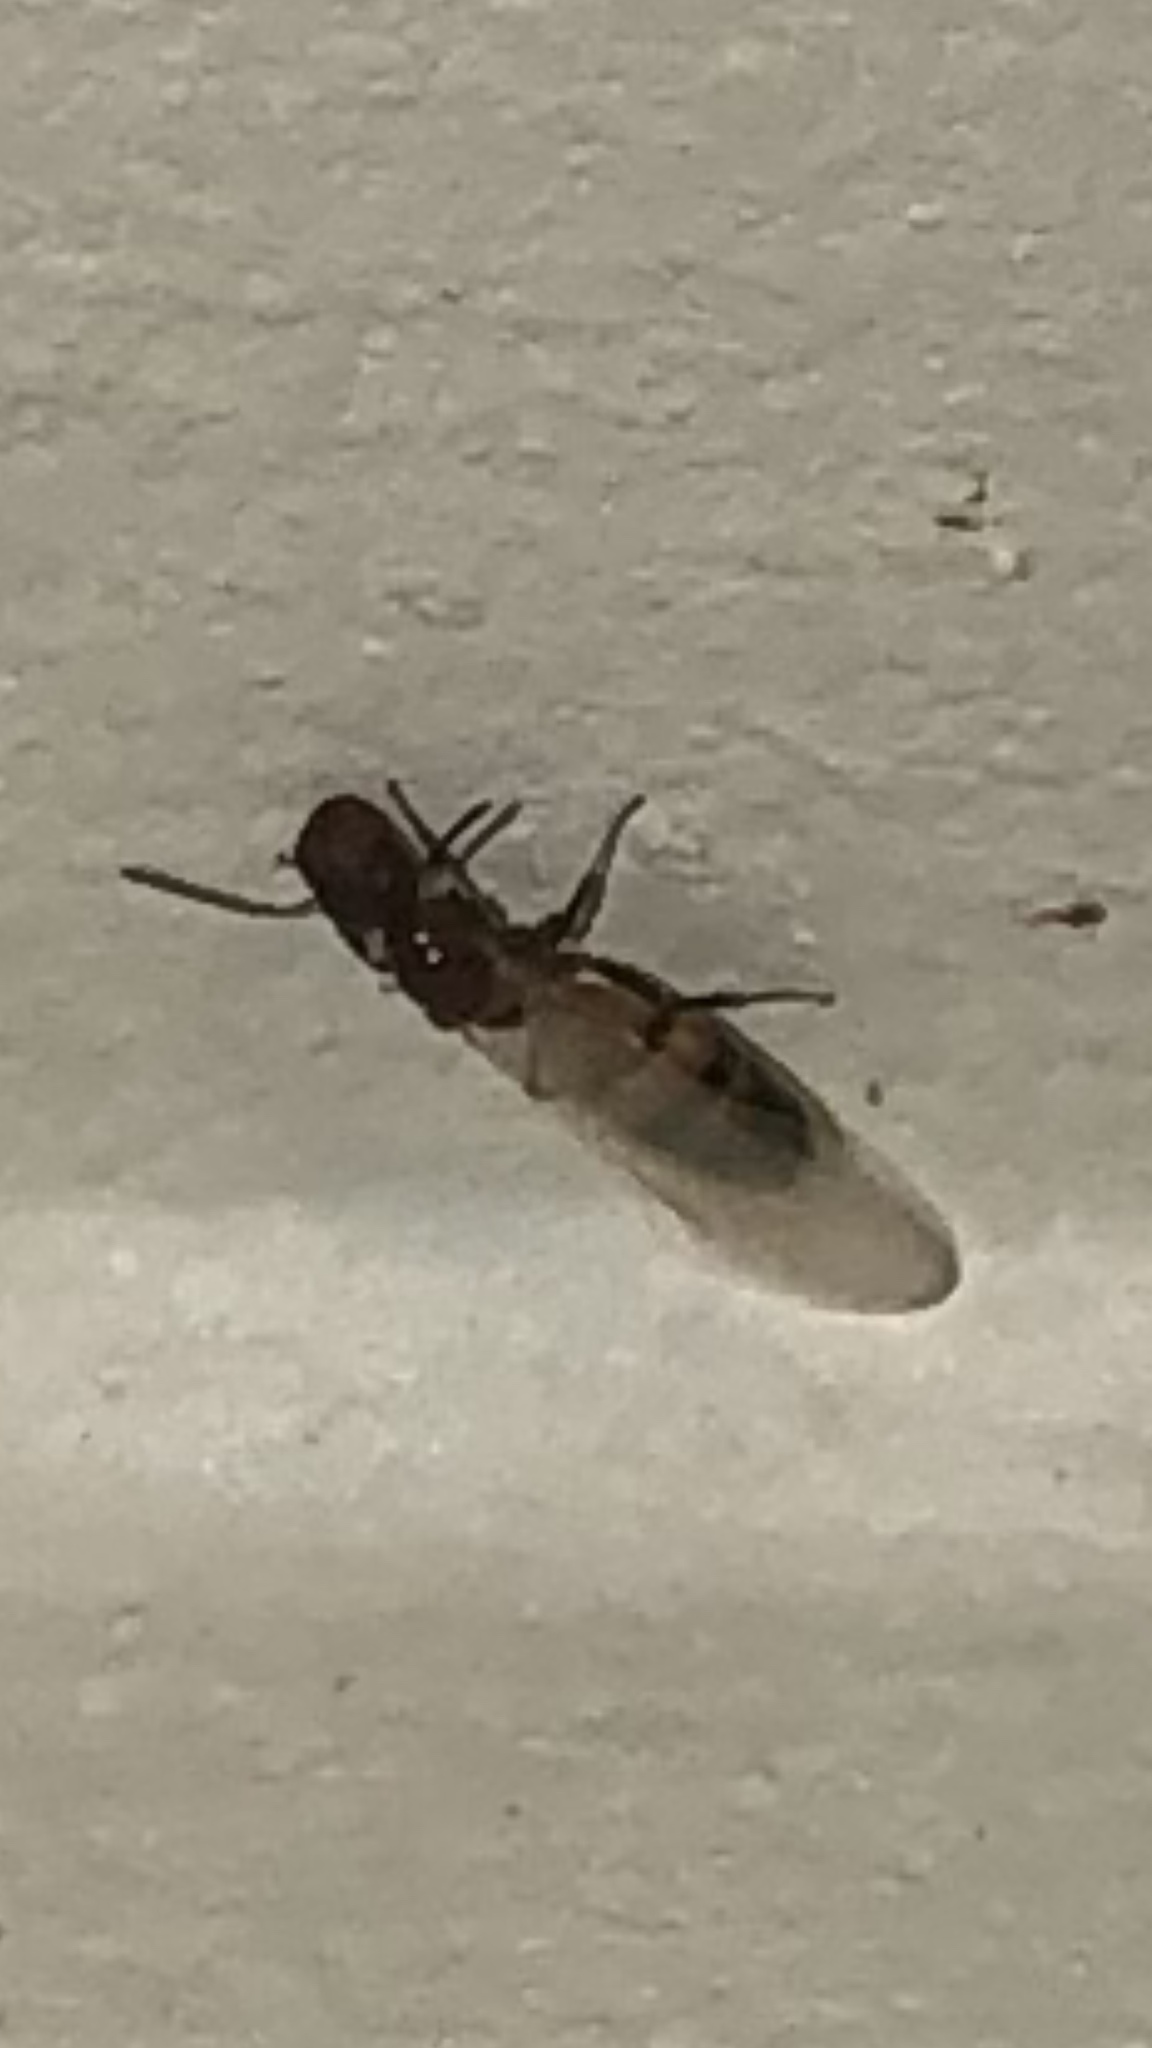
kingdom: Animalia
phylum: Arthropoda
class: Insecta
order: Hymenoptera
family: Formicidae
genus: Colobopsis
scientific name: Colobopsis impressa
